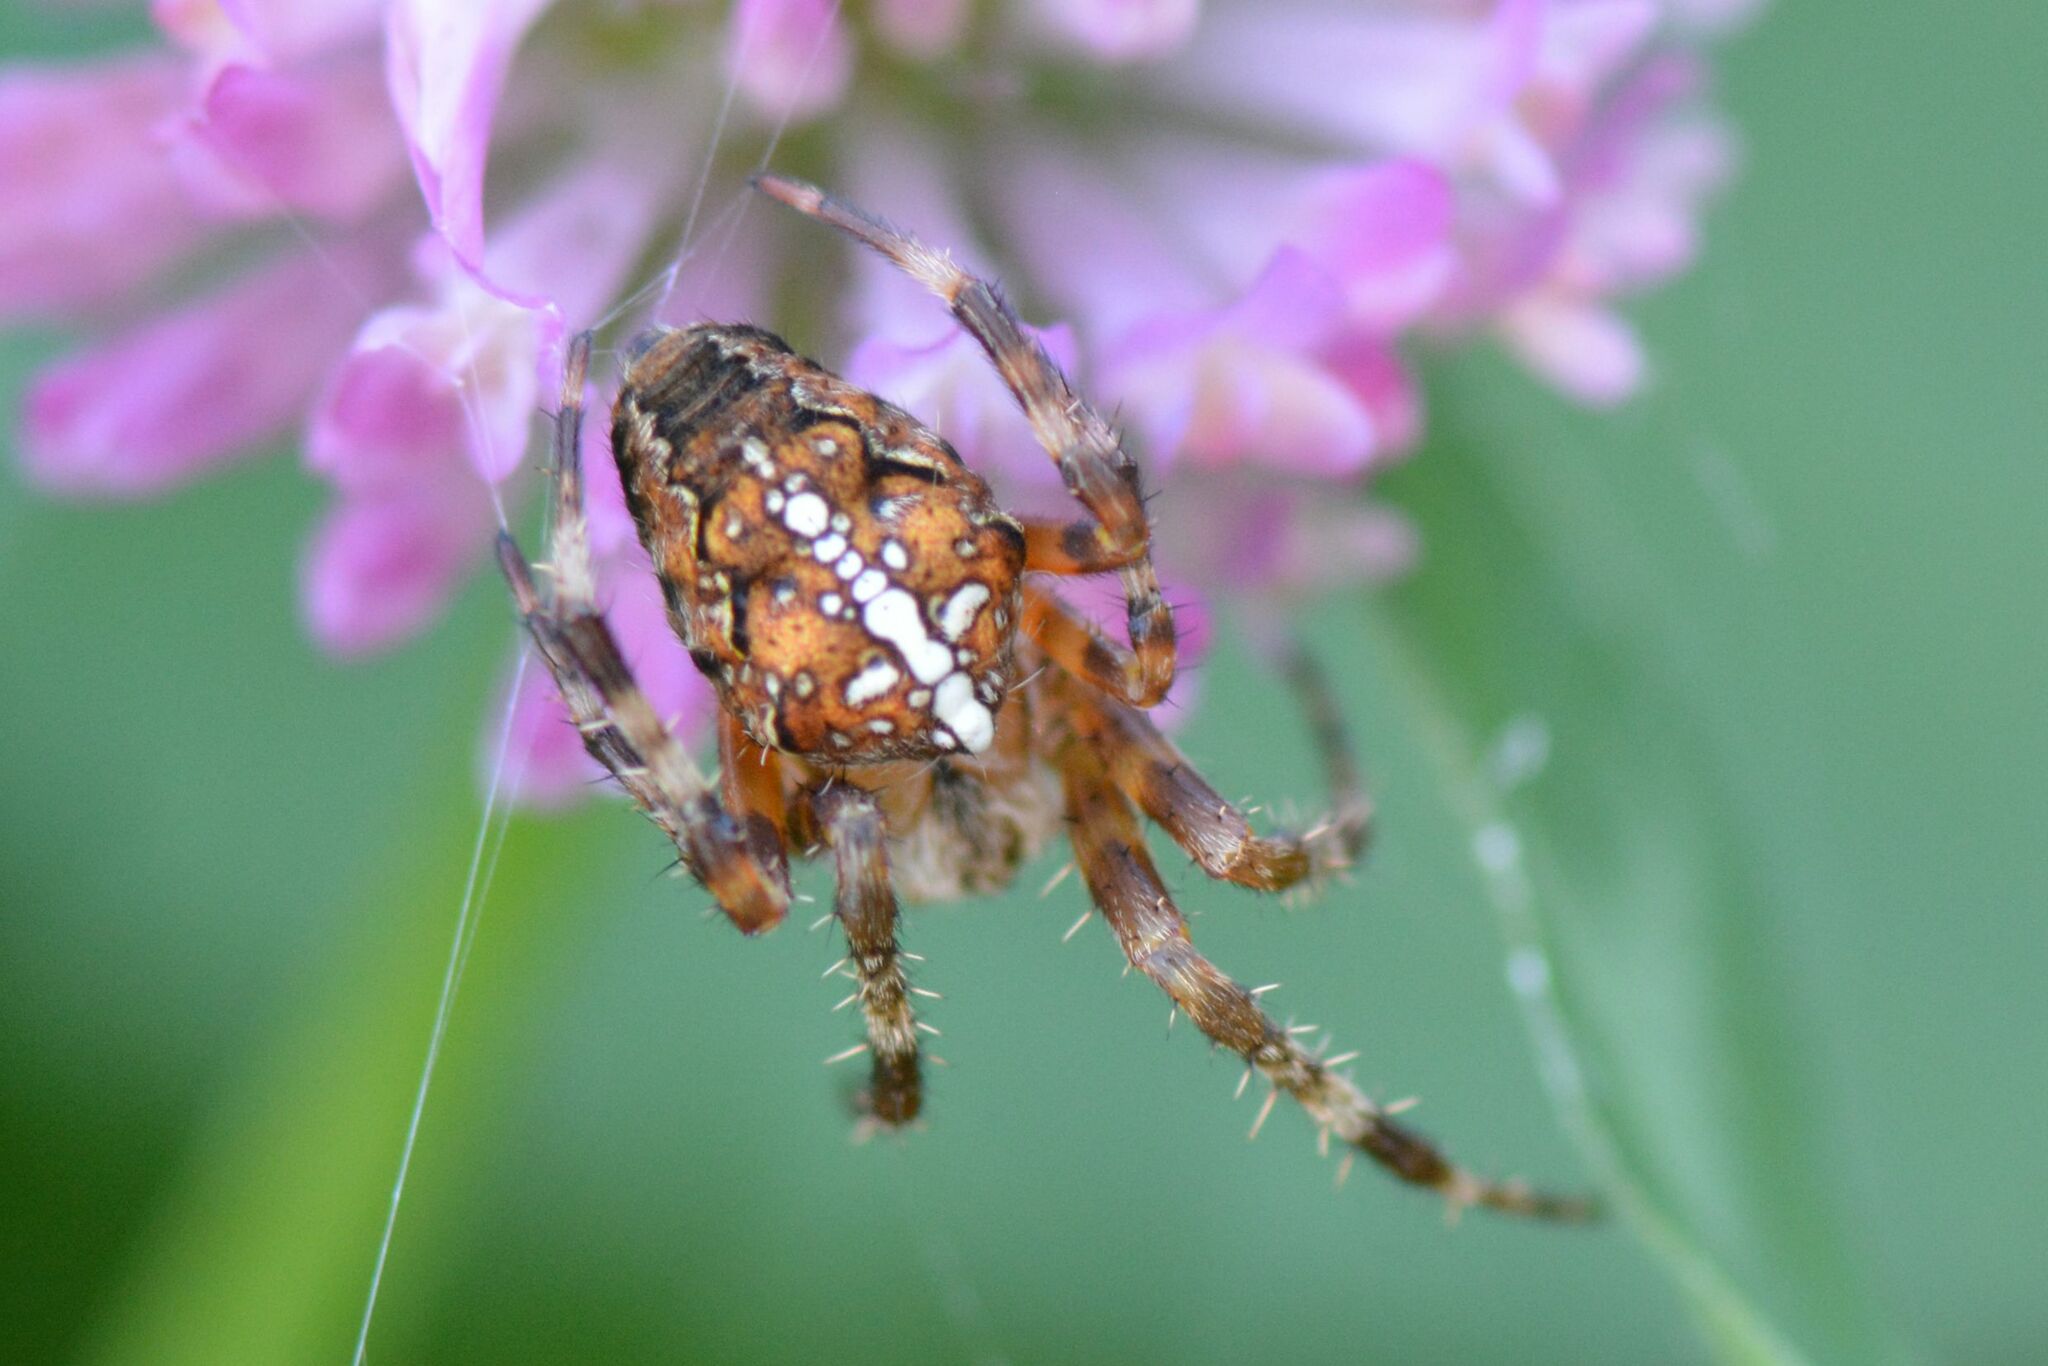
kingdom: Animalia
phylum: Arthropoda
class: Arachnida
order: Araneae
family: Araneidae
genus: Araneus
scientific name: Araneus diadematus
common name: Cross orbweaver
